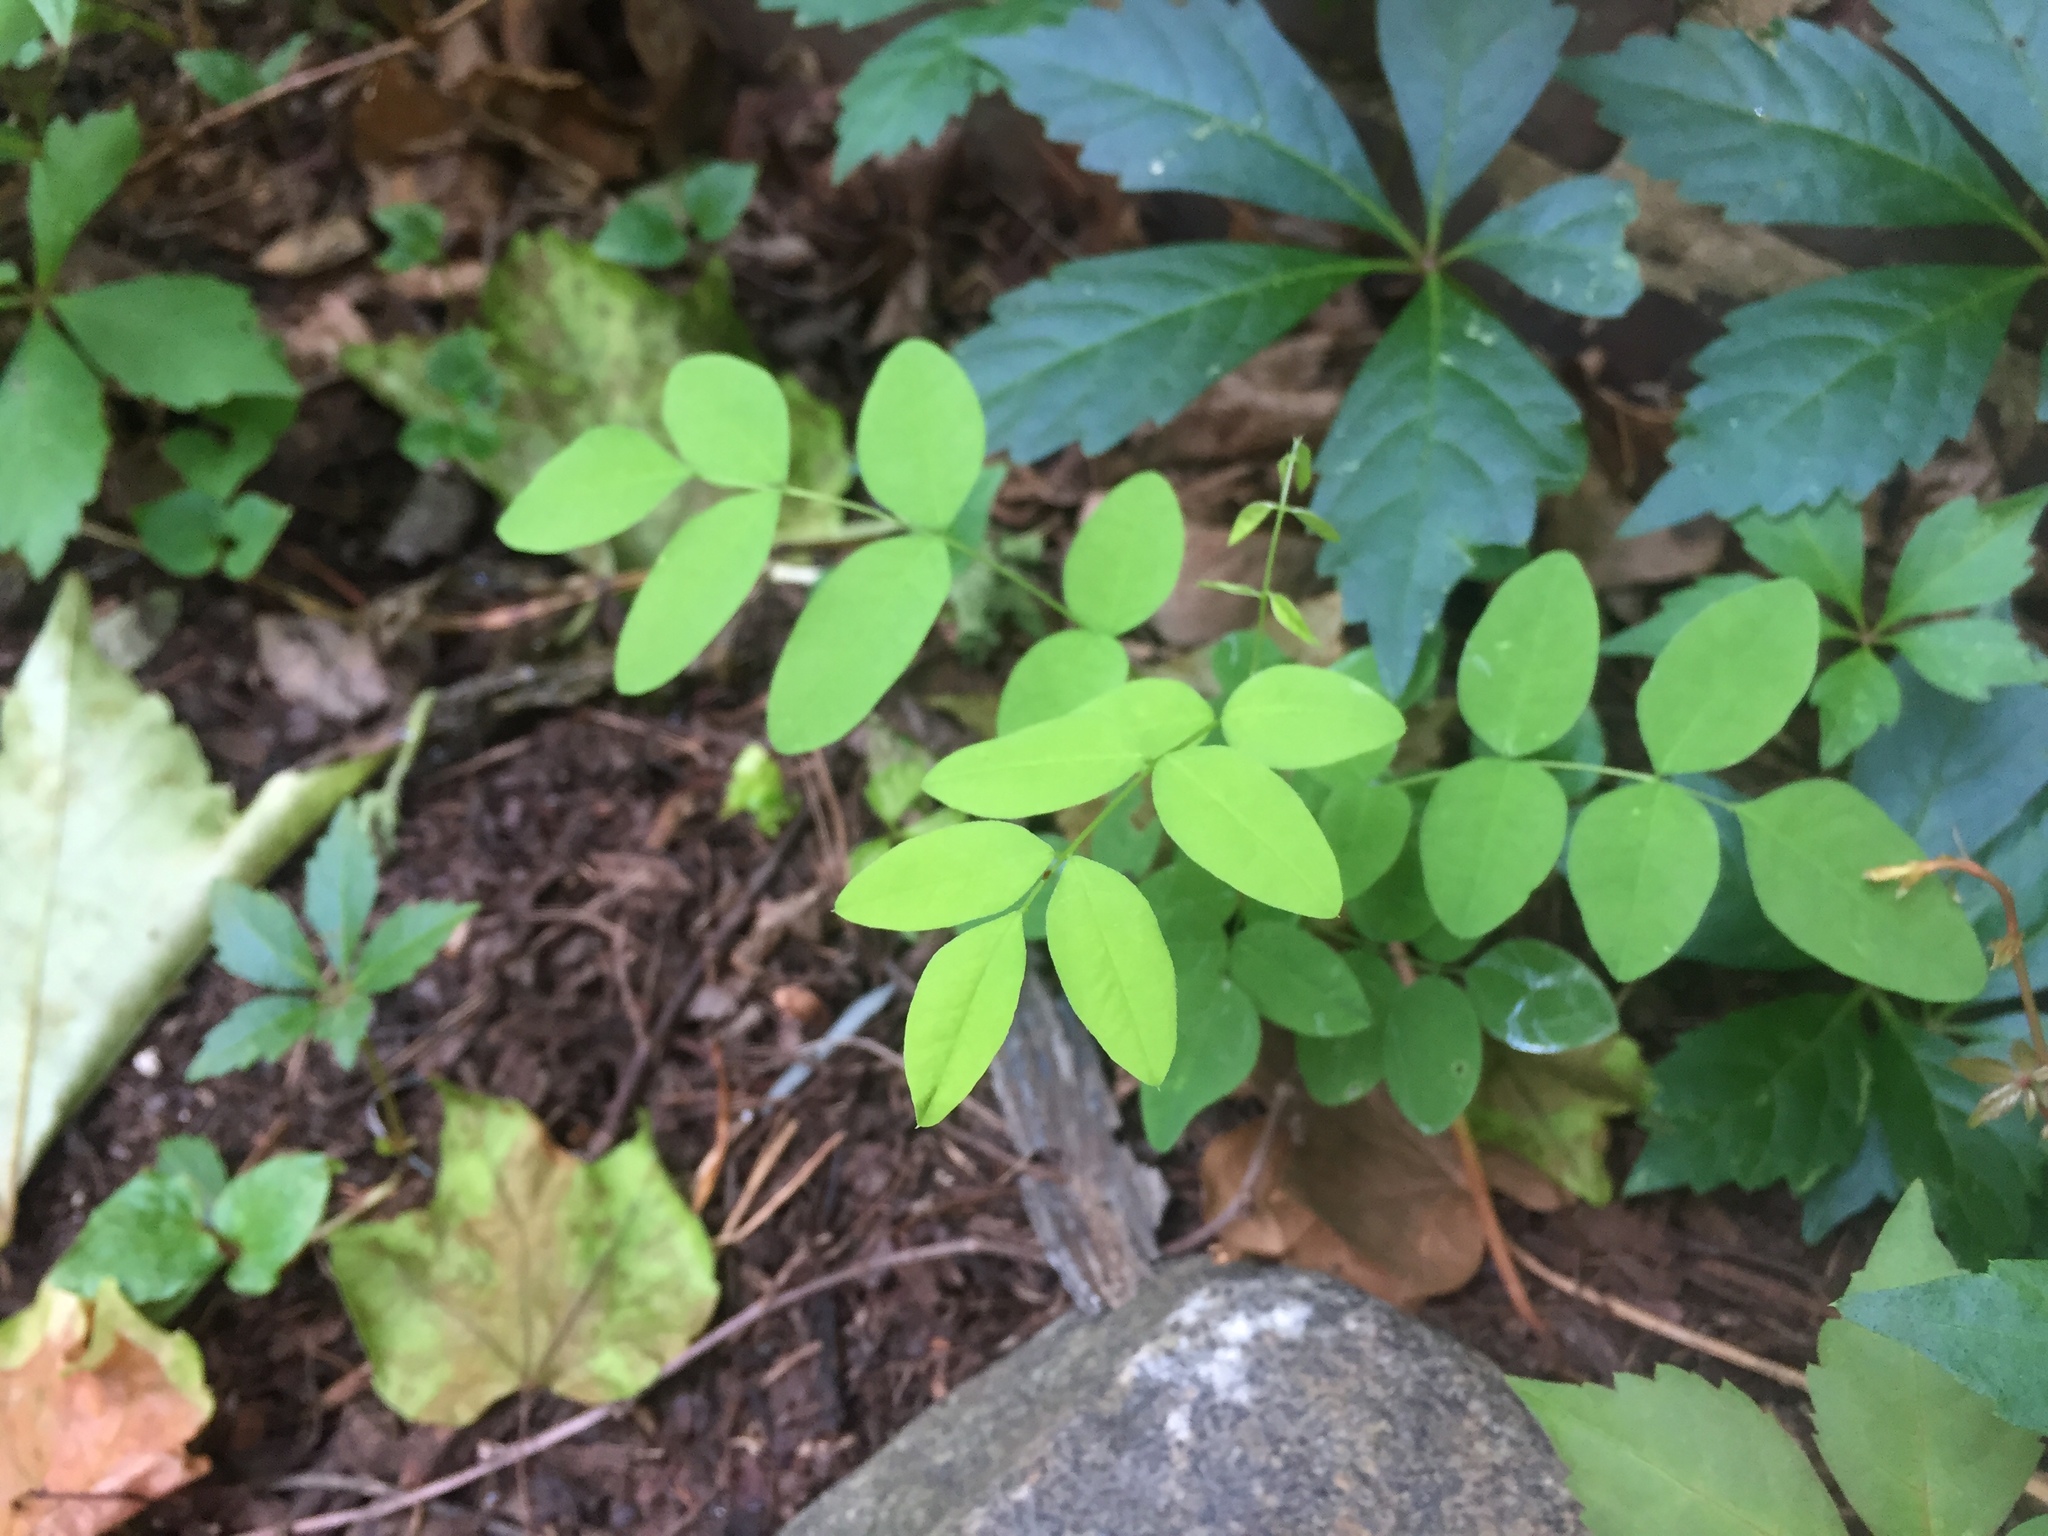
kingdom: Plantae
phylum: Tracheophyta
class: Magnoliopsida
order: Fabales
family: Fabaceae
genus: Robinia
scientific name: Robinia pseudoacacia
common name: Black locust
